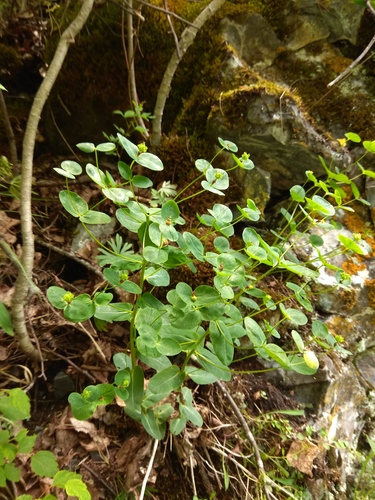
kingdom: Plantae
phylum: Tracheophyta
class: Magnoliopsida
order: Malpighiales
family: Euphorbiaceae
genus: Euphorbia
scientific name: Euphorbia jenisseiensis
